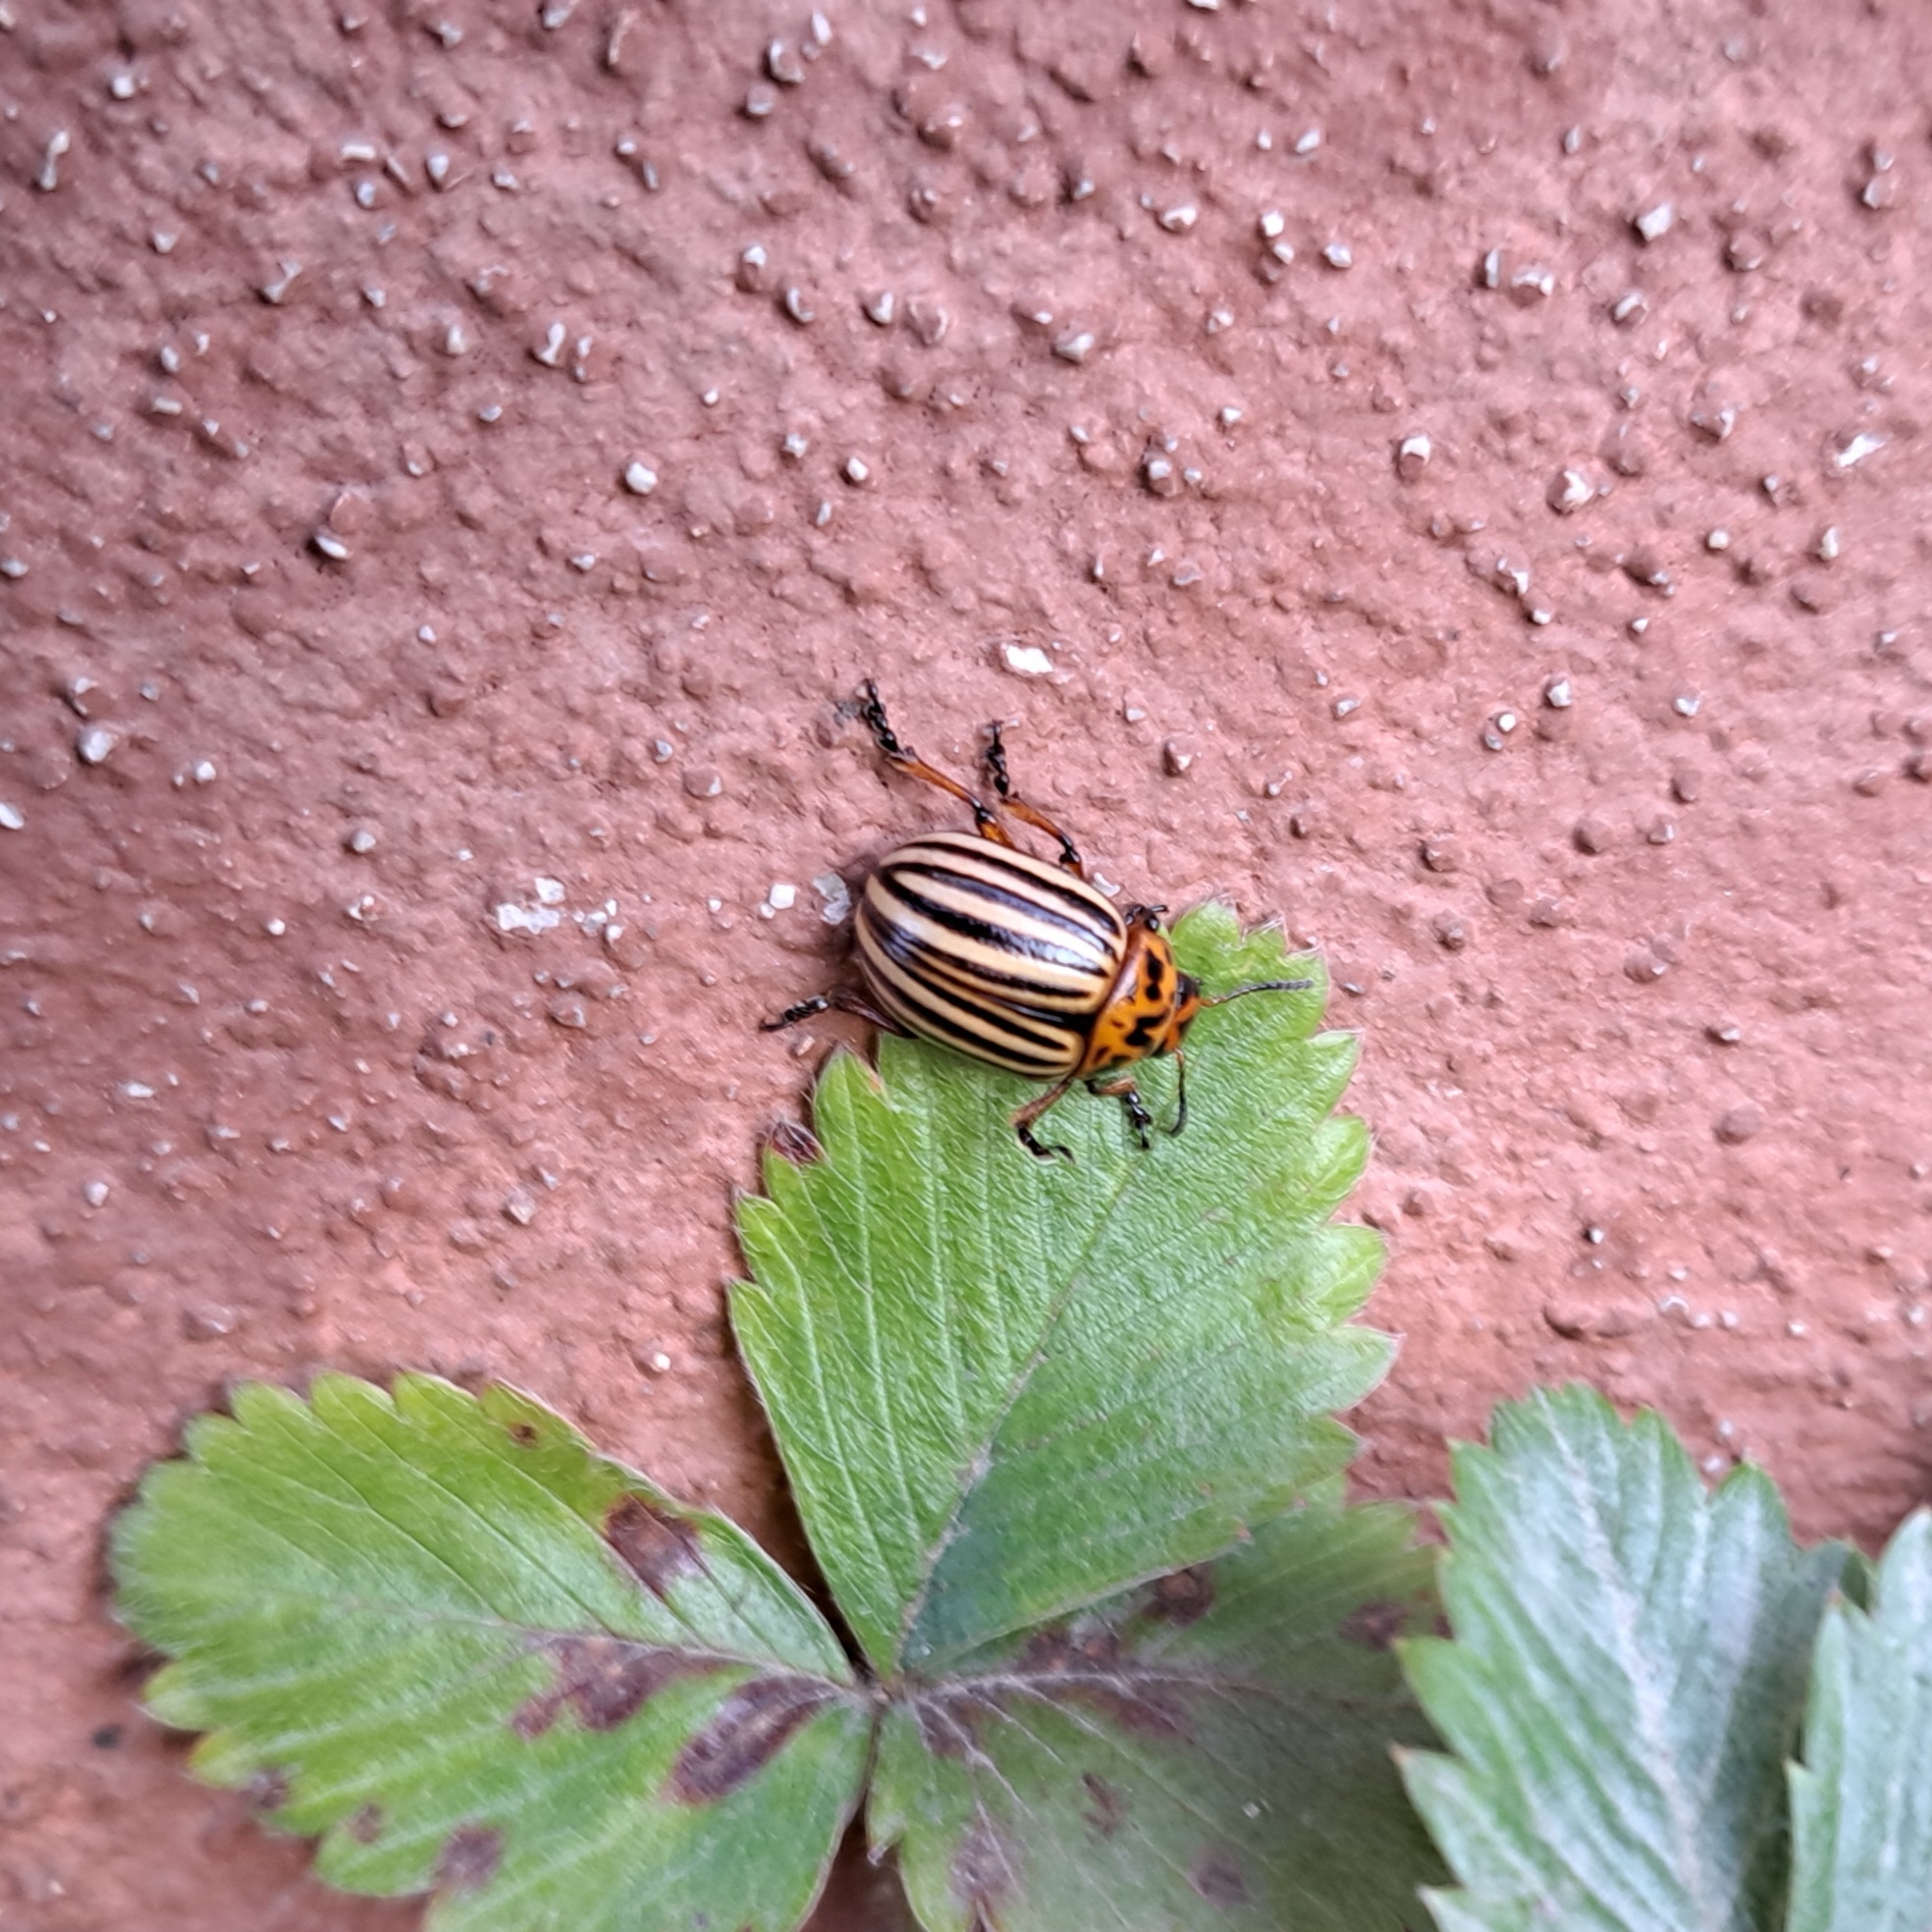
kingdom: Animalia
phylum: Arthropoda
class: Insecta
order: Coleoptera
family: Chrysomelidae
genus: Leptinotarsa
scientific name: Leptinotarsa decemlineata
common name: Colorado potato beetle
